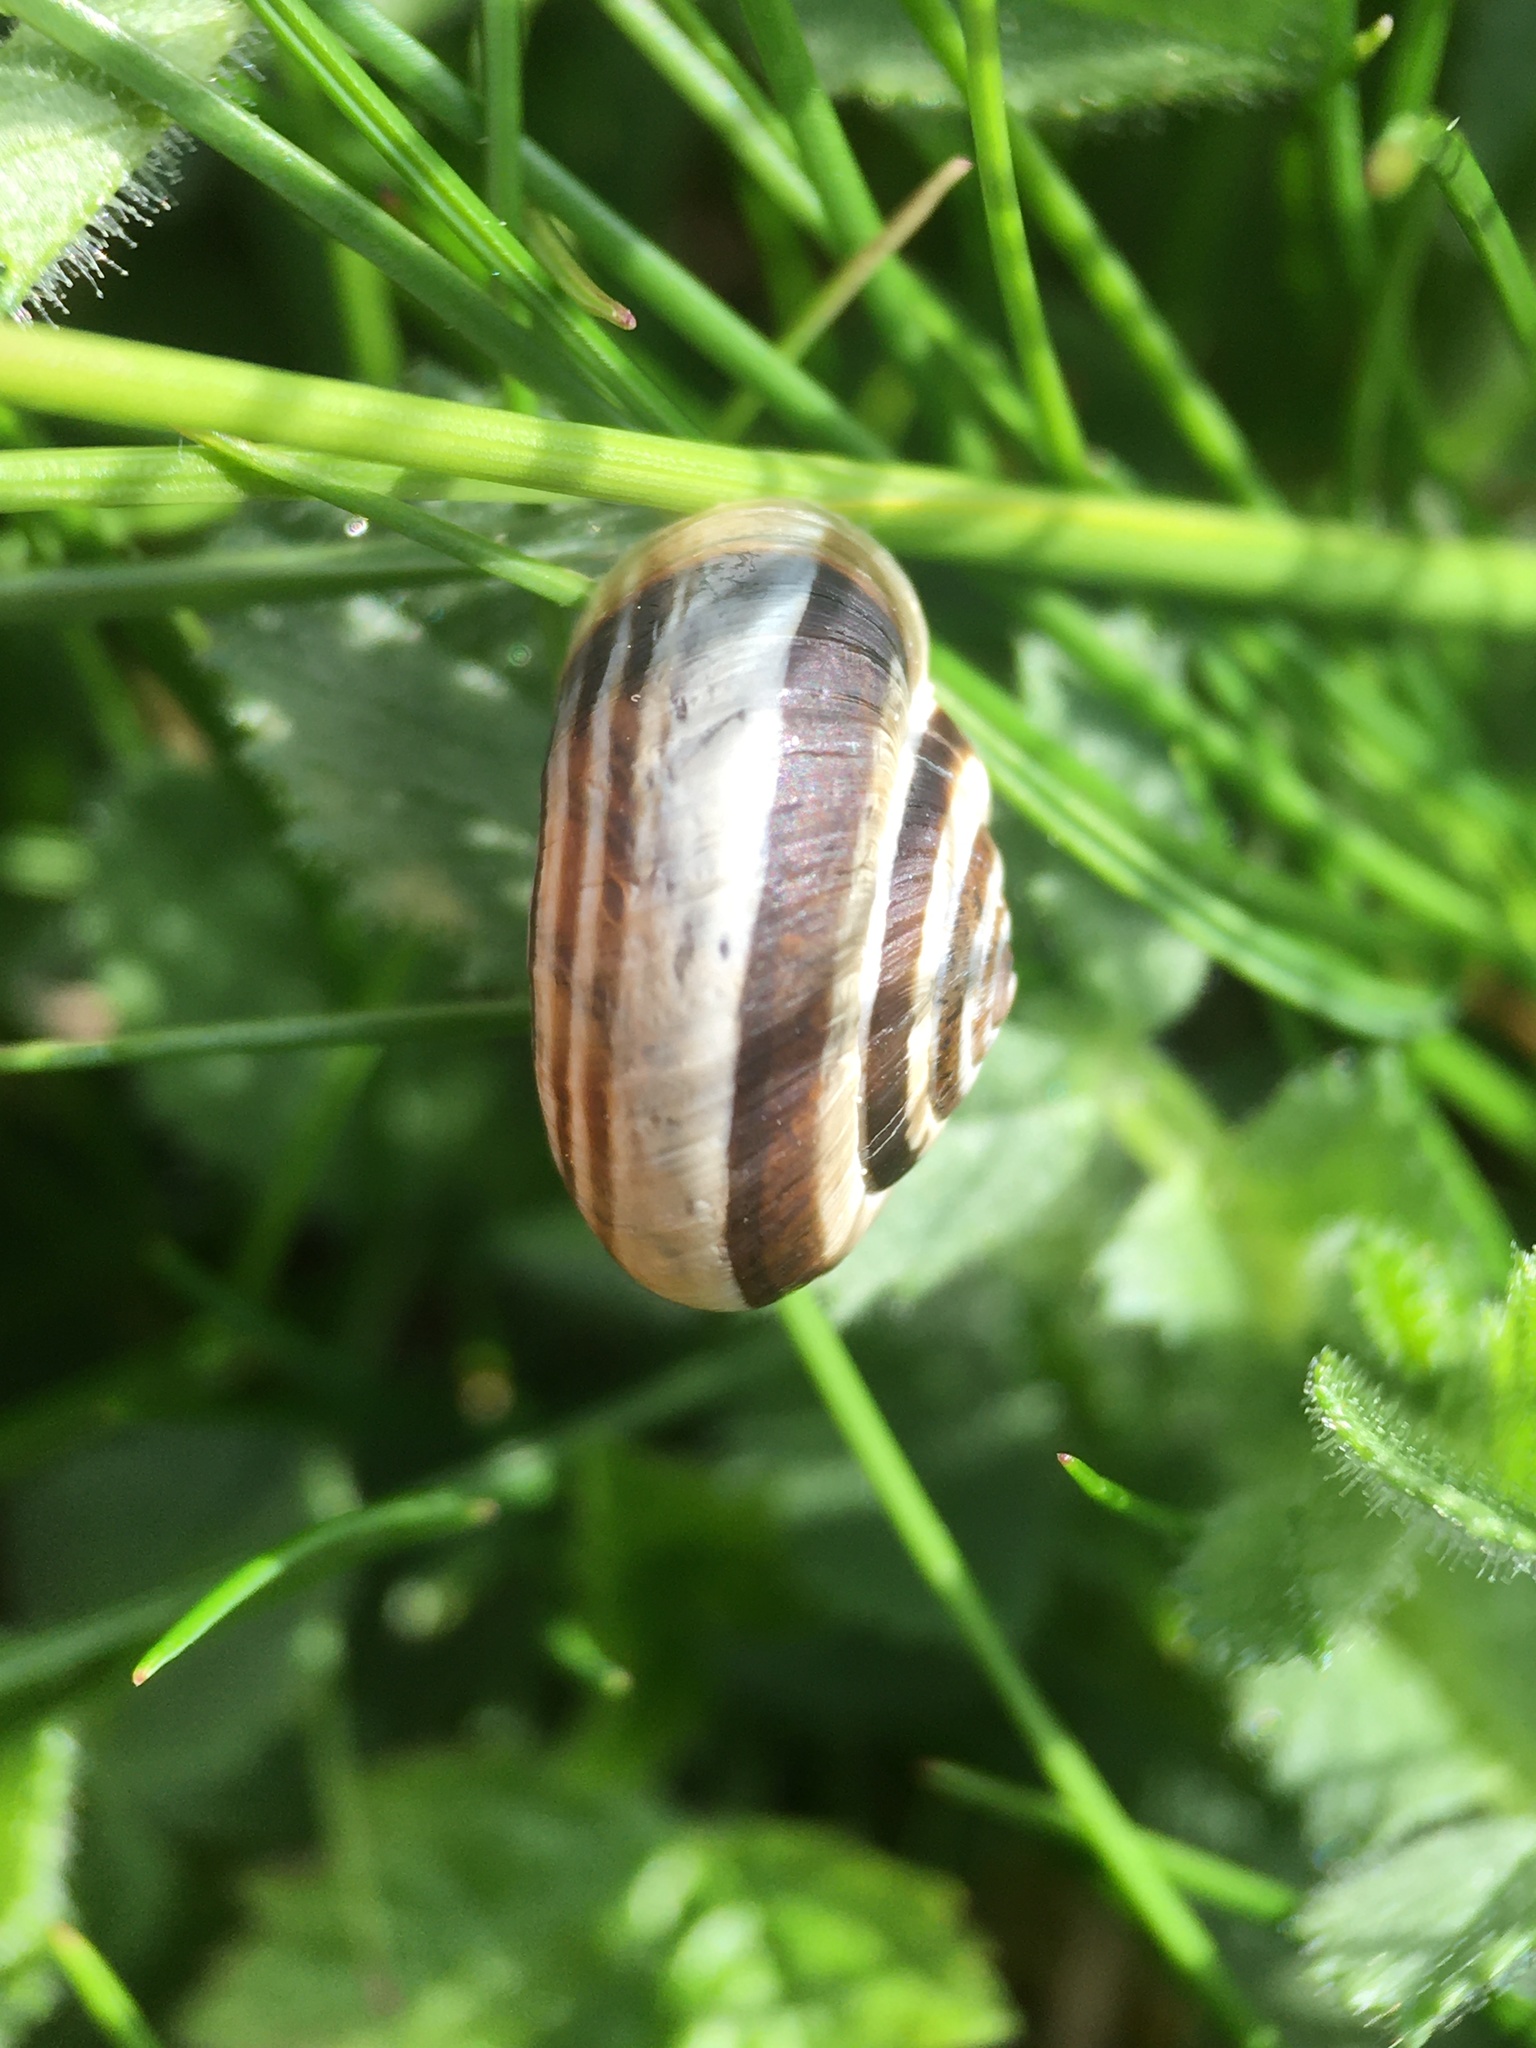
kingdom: Animalia
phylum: Mollusca
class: Gastropoda
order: Stylommatophora
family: Geomitridae
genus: Helicella
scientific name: Helicella itala
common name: Heath snail
